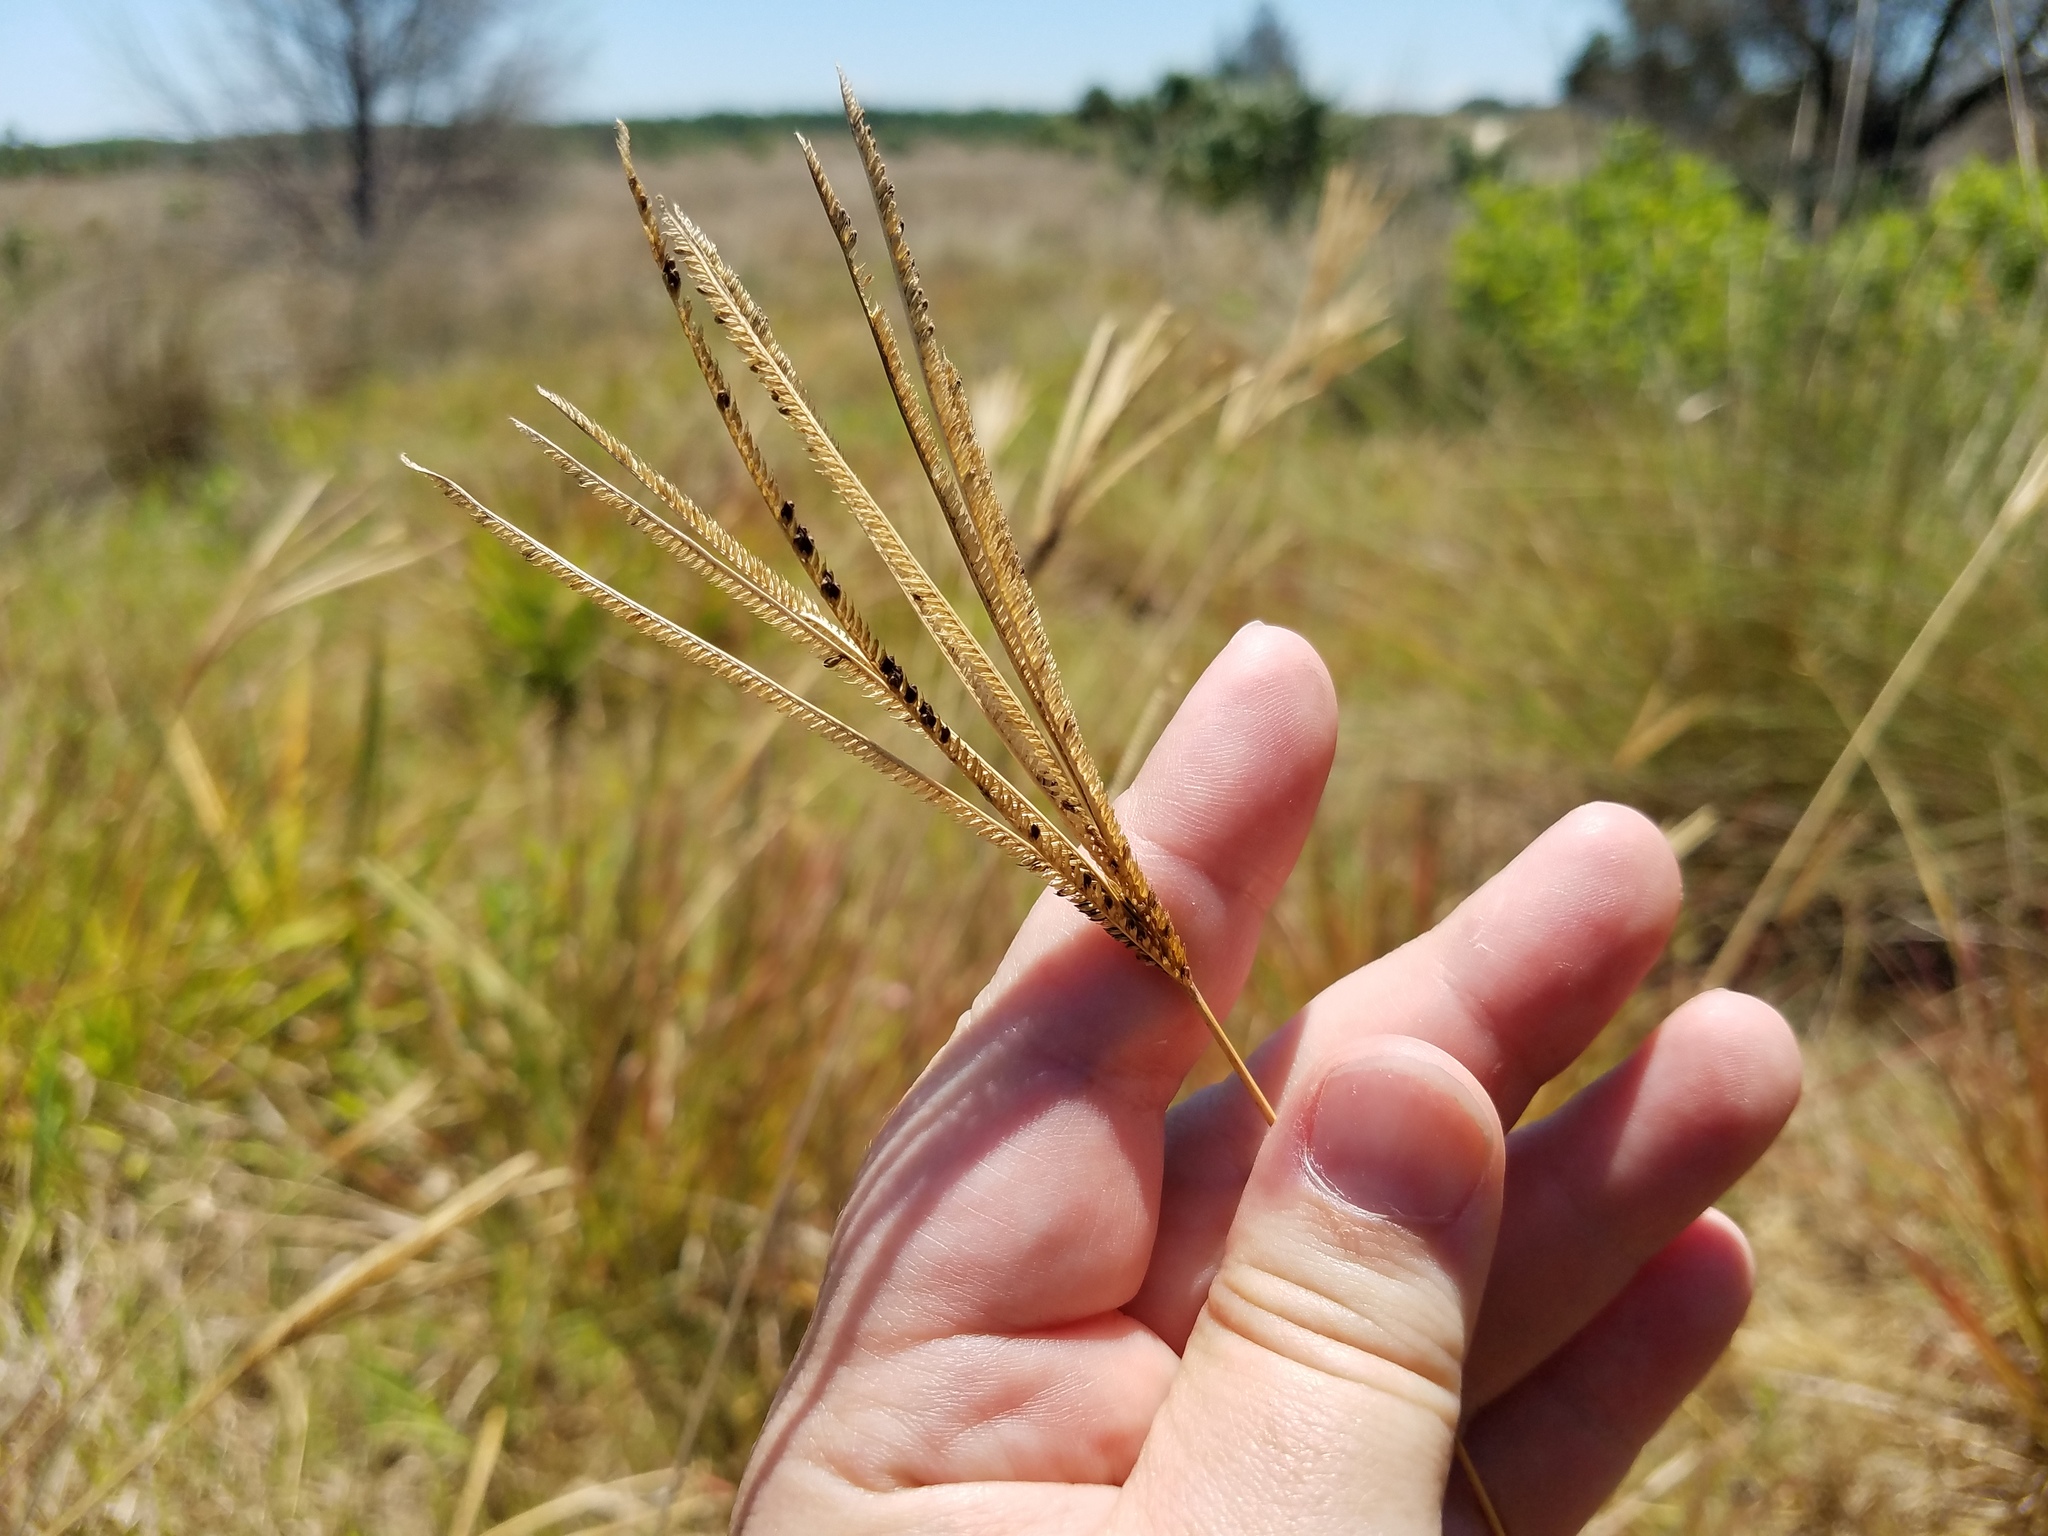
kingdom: Plantae
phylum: Tracheophyta
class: Liliopsida
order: Poales
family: Poaceae
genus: Eustachys
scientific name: Eustachys glauca
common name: Saltmarsh finger grass
